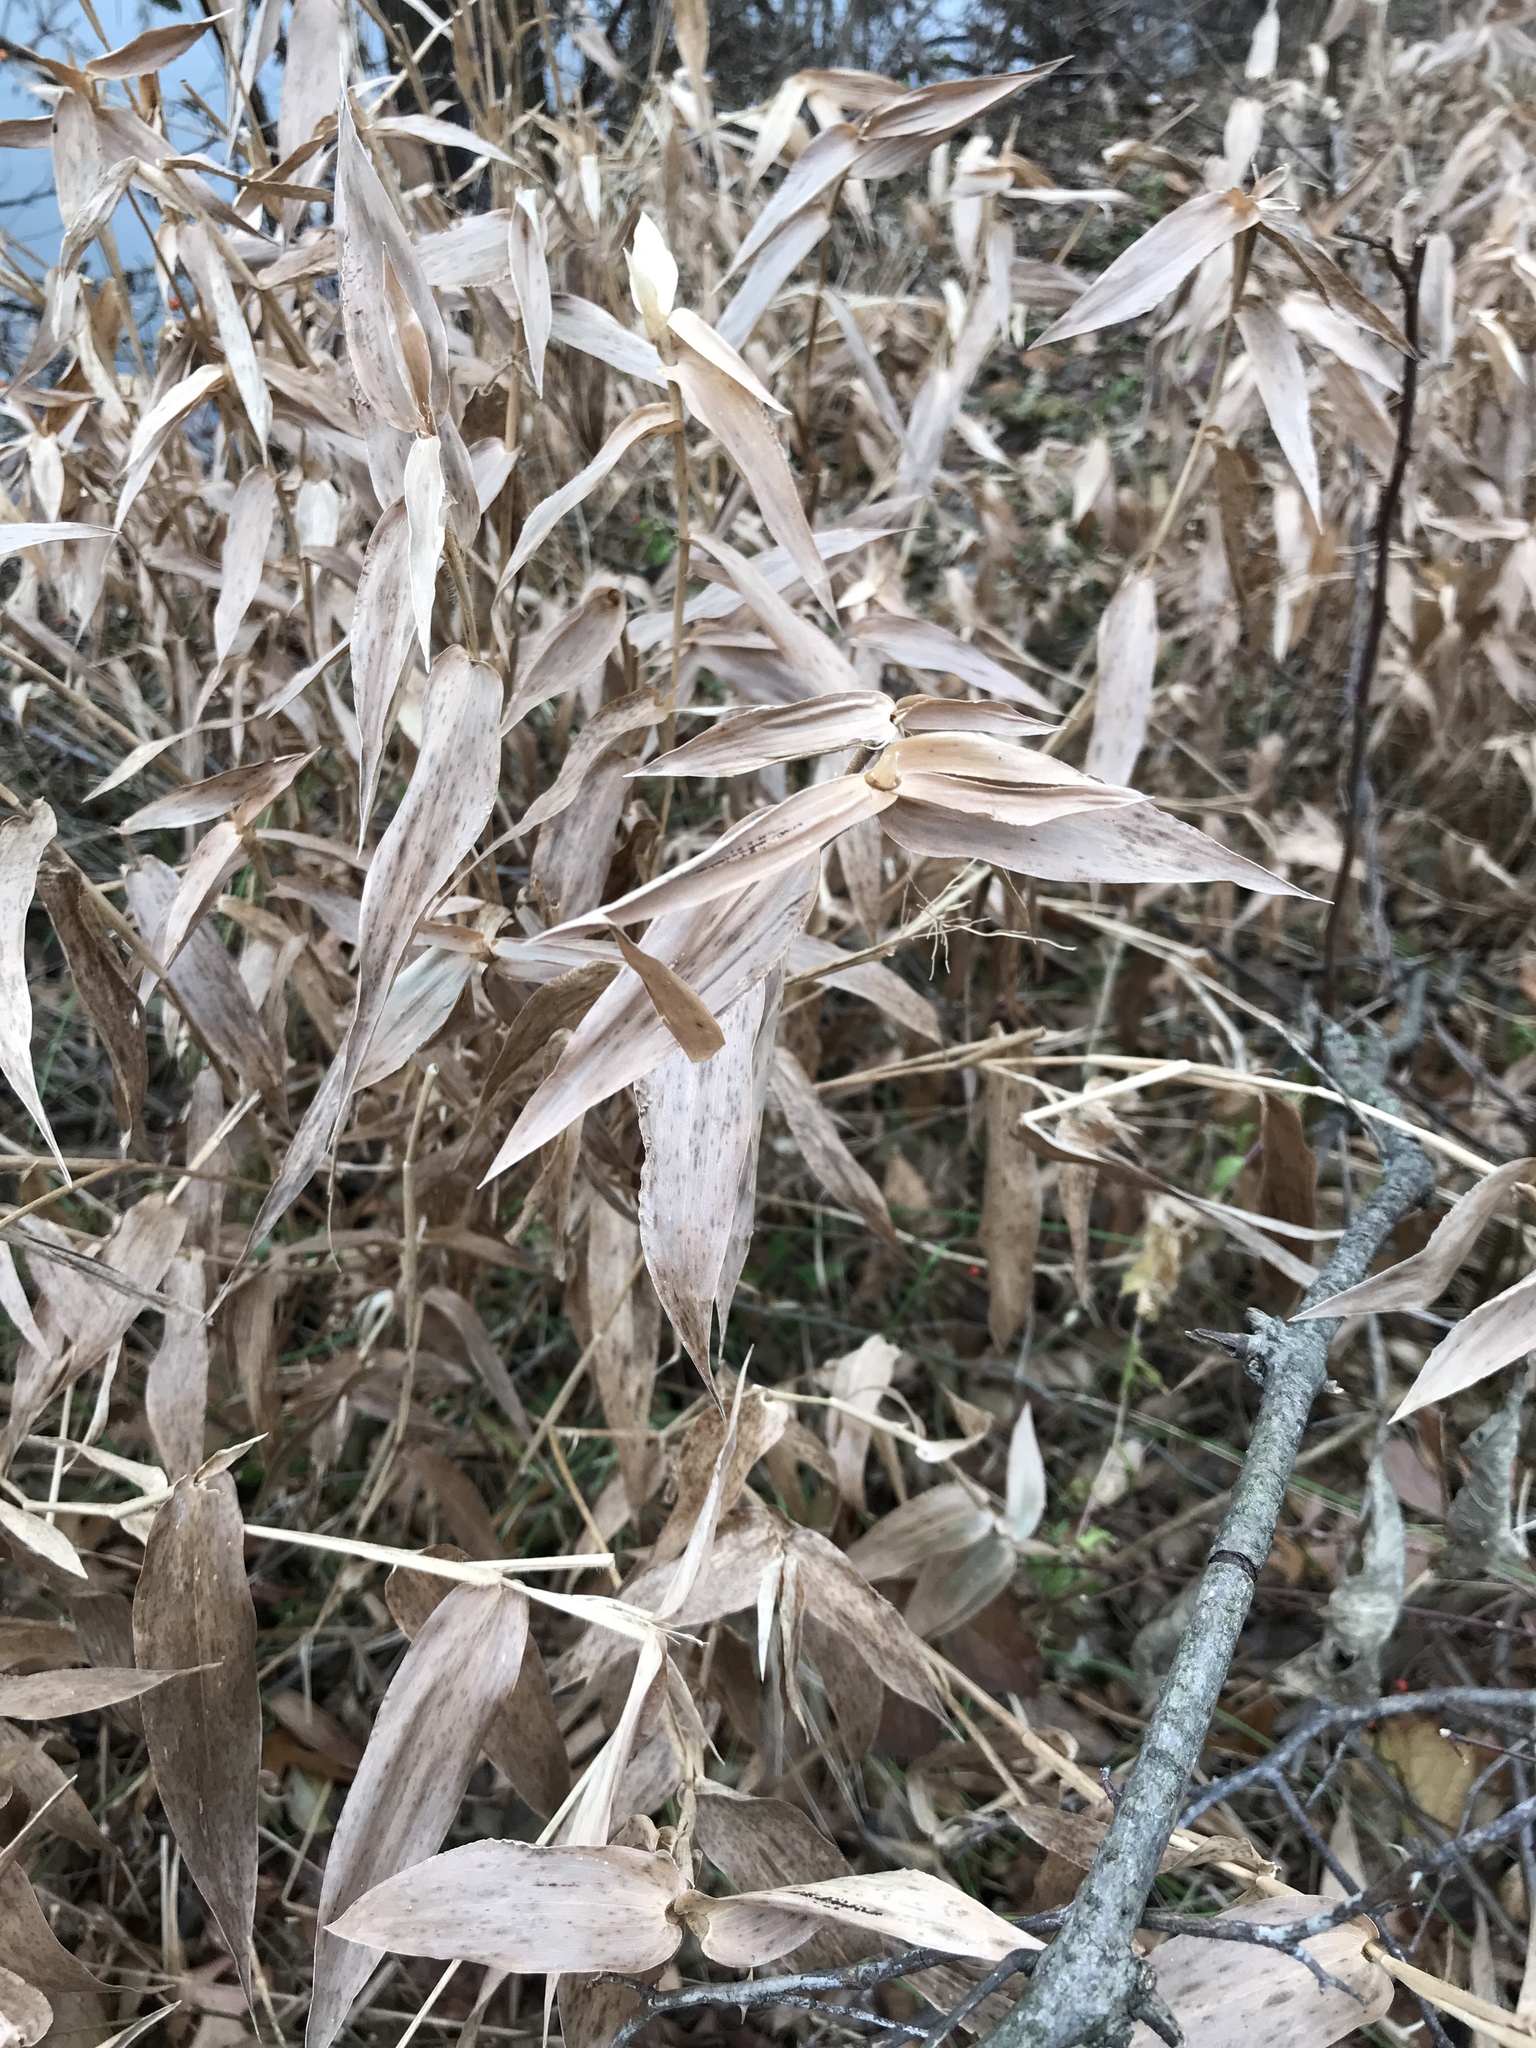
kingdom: Plantae
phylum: Tracheophyta
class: Liliopsida
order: Poales
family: Poaceae
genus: Dichanthelium
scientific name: Dichanthelium clandestinum
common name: Deer-tongue grass
